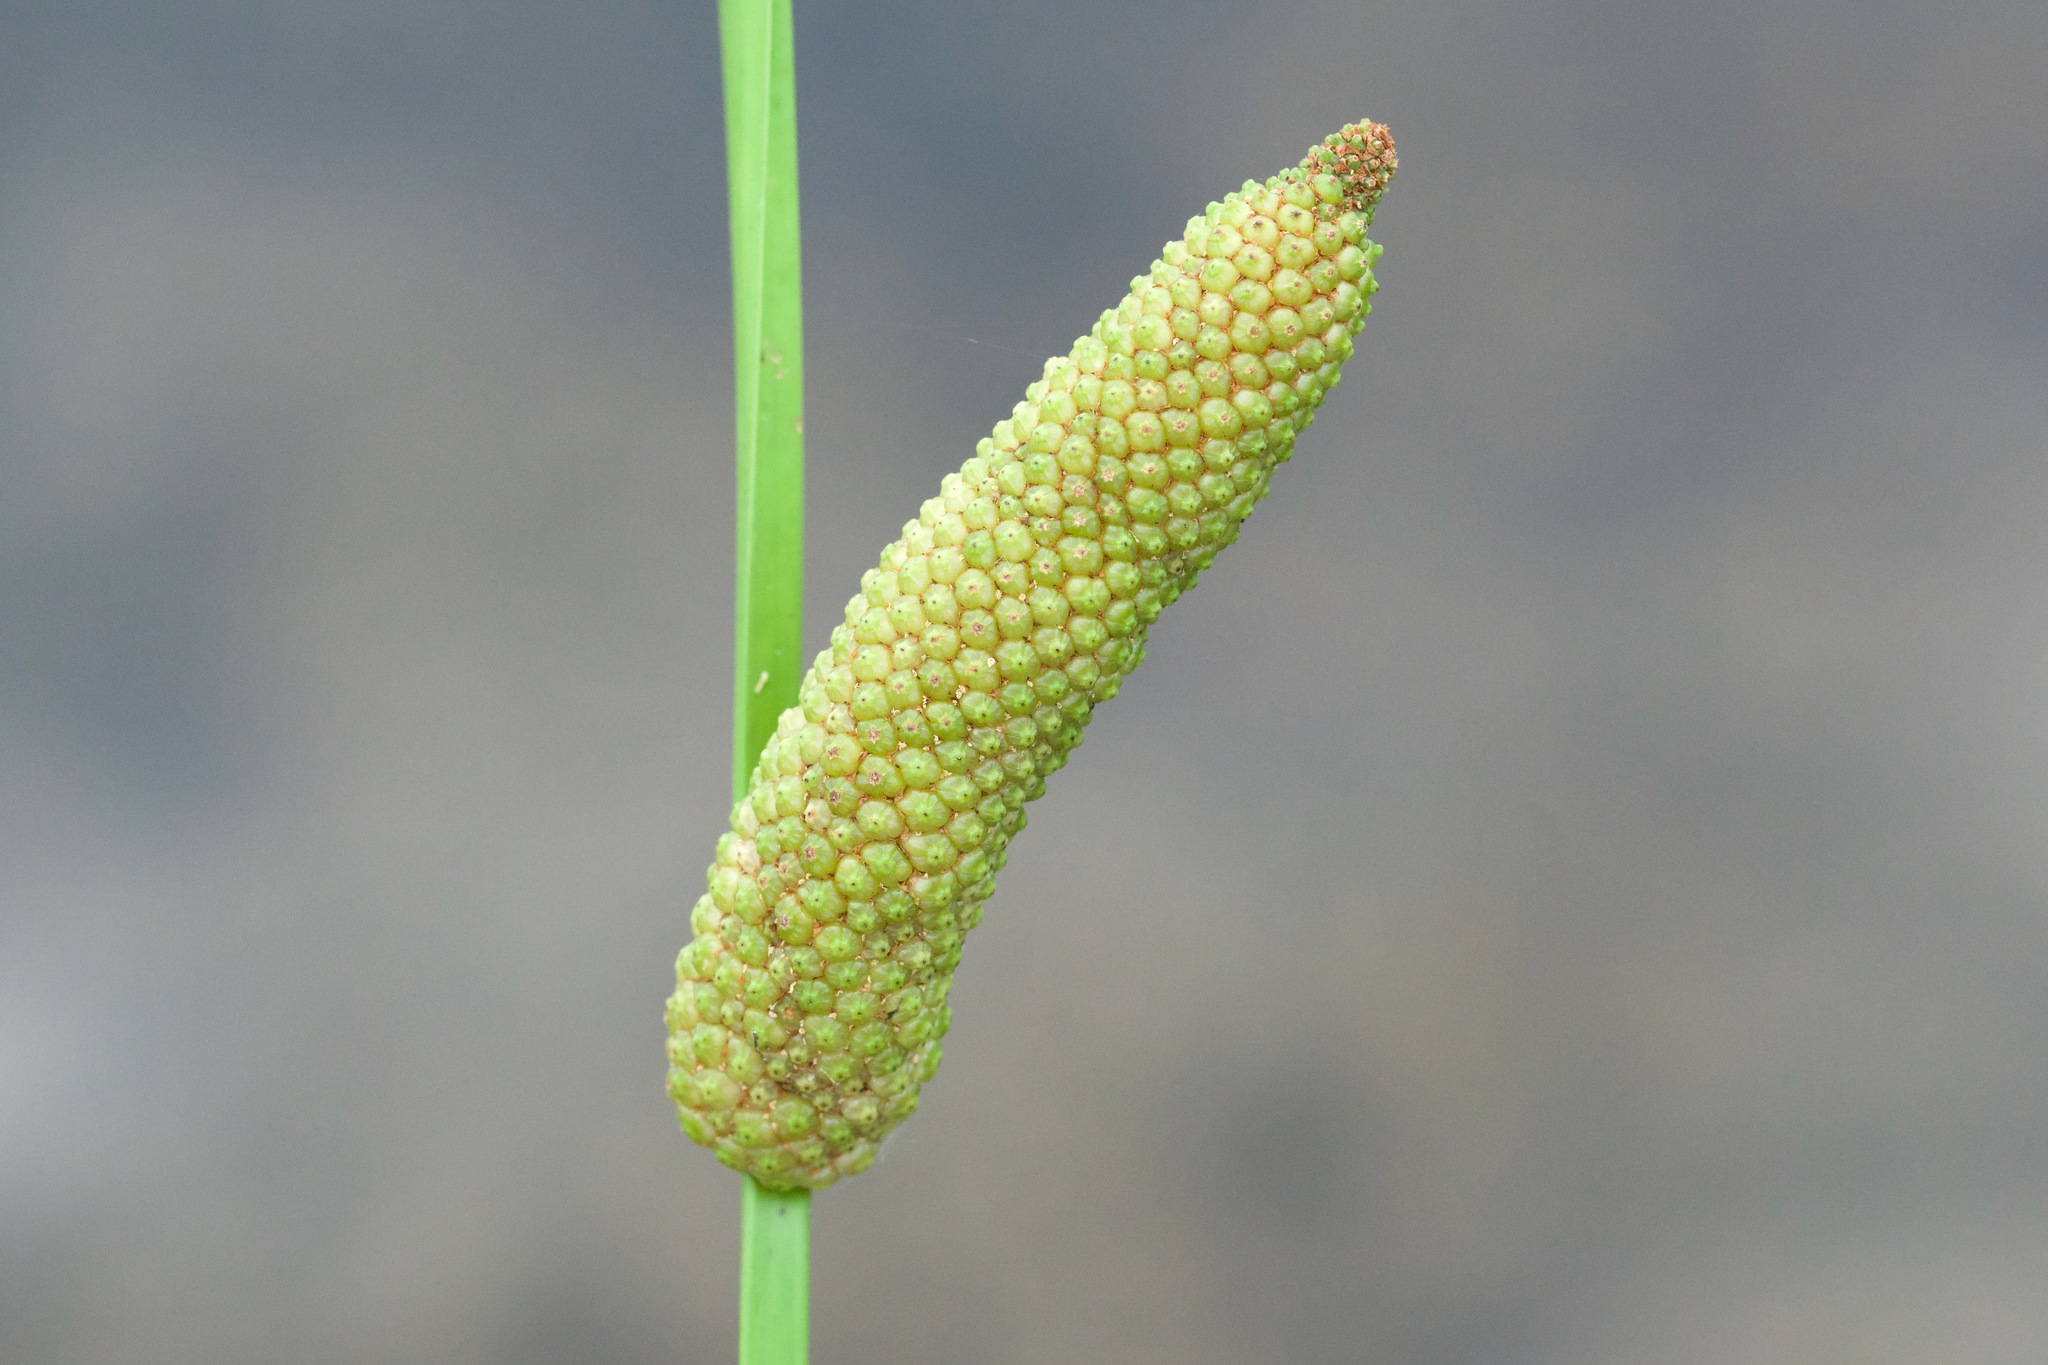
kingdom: Plantae
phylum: Tracheophyta
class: Liliopsida
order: Acorales
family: Acoraceae
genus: Acorus
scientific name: Acorus calamus
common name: Sweet-flag
